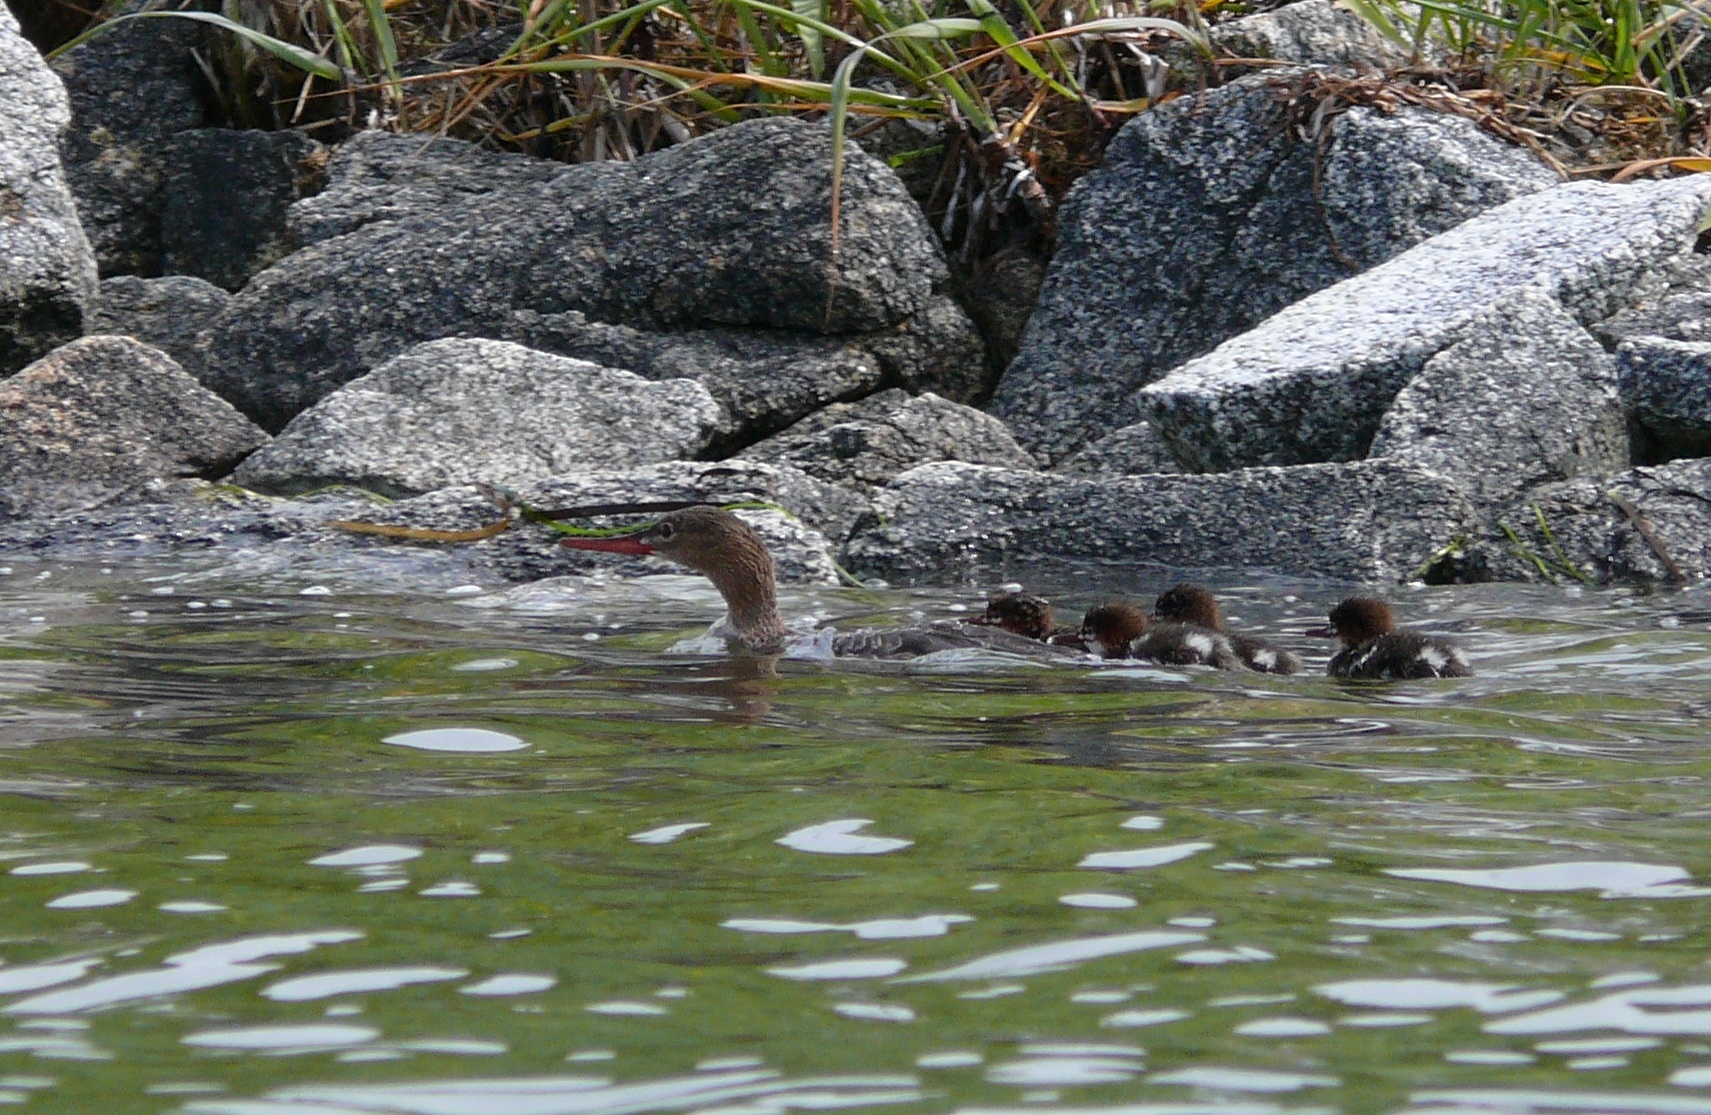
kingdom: Animalia
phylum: Chordata
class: Aves
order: Anseriformes
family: Anatidae
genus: Mergus
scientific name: Mergus serrator
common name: Red-breasted merganser
